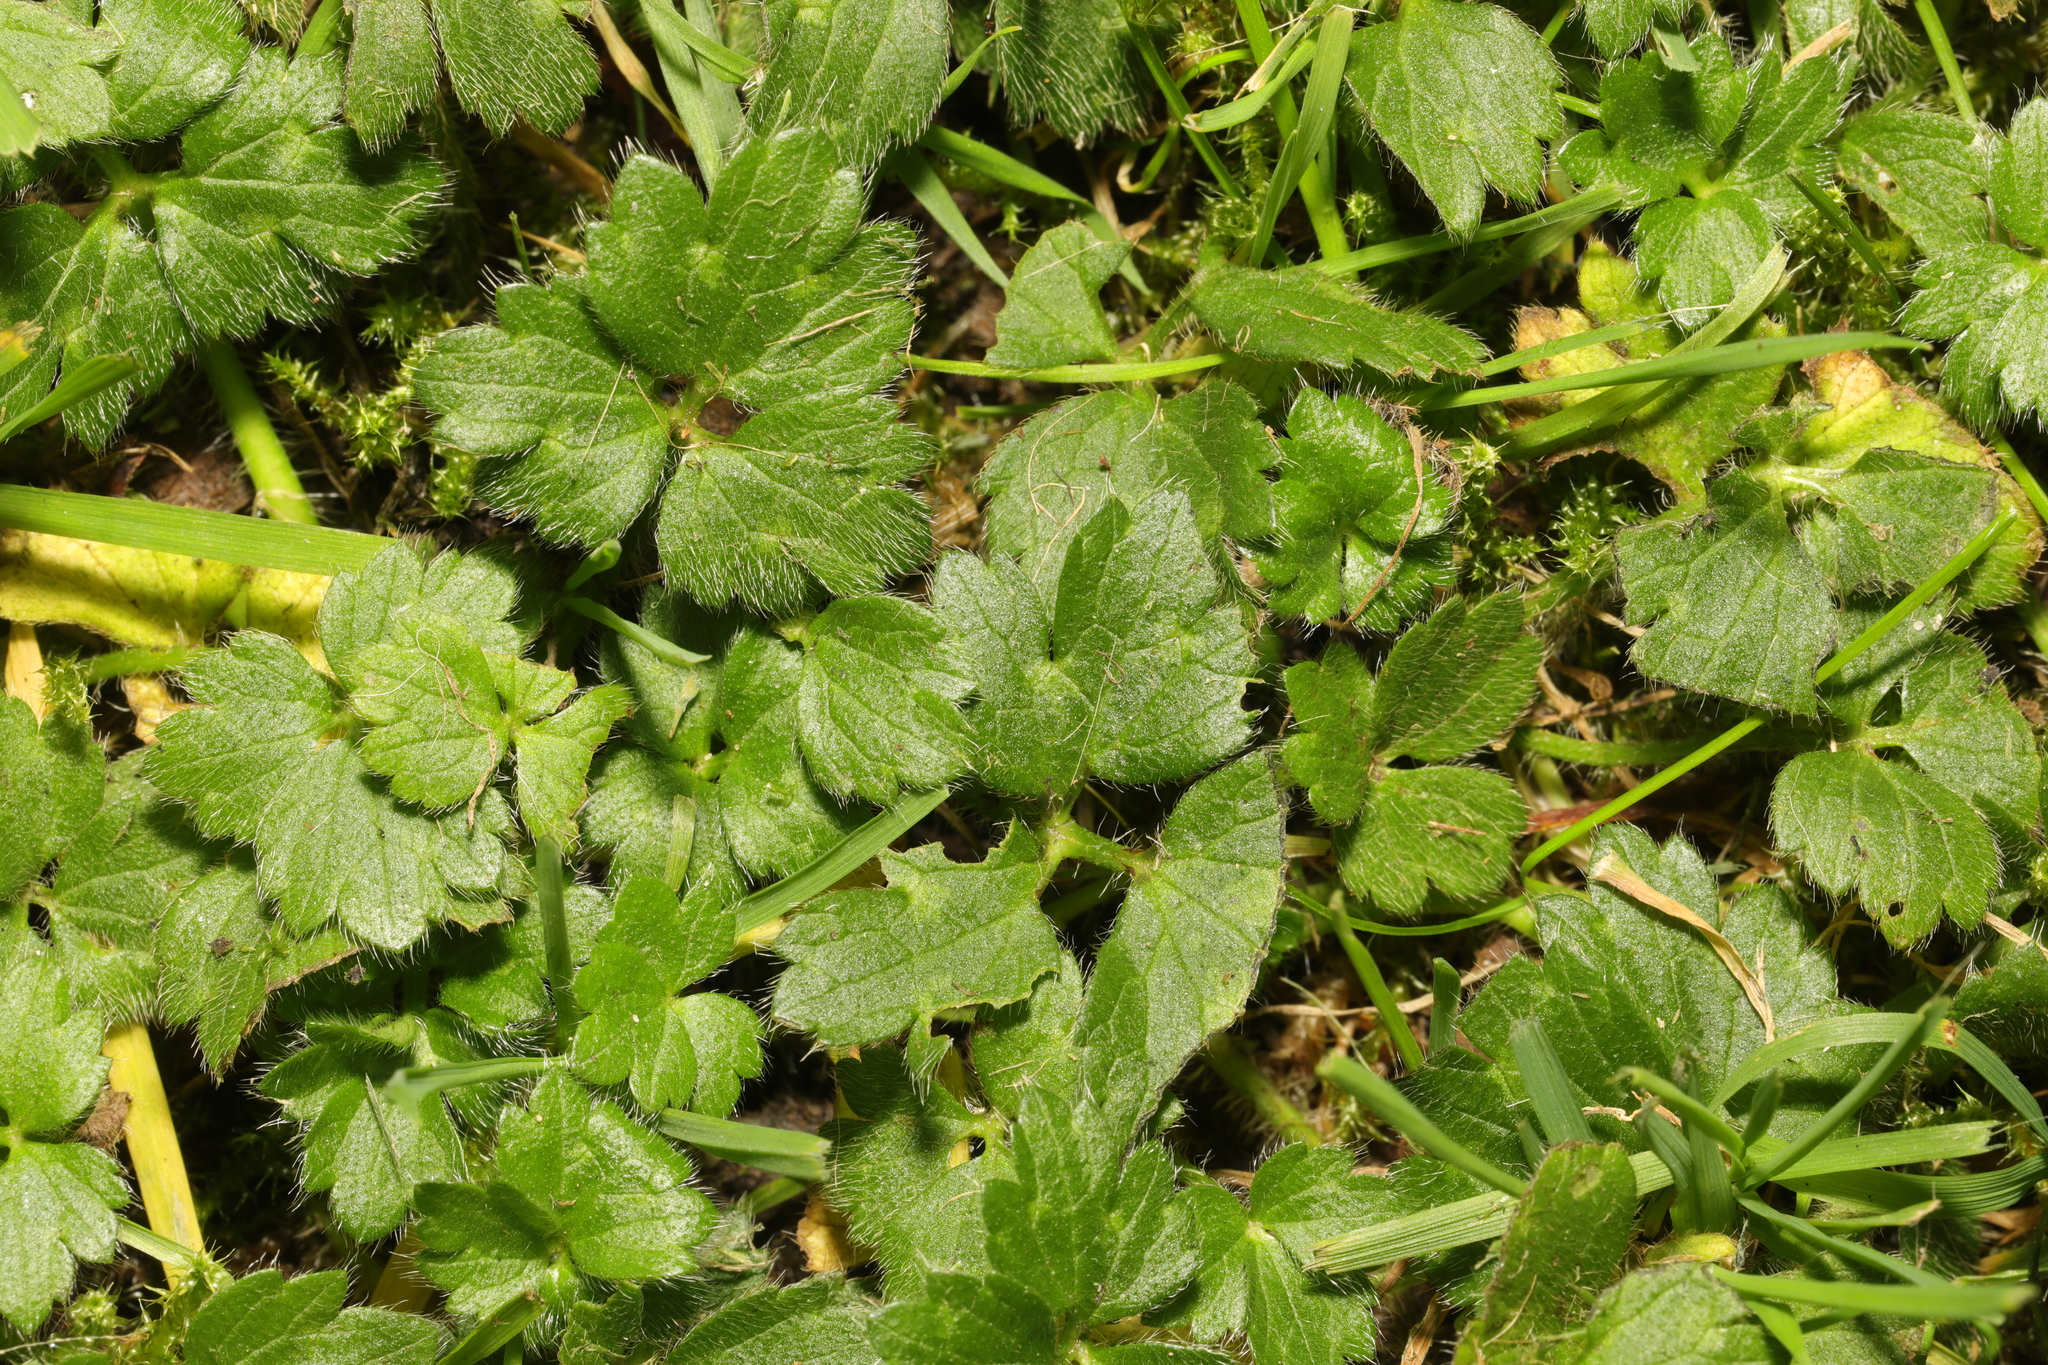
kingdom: Plantae
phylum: Tracheophyta
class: Magnoliopsida
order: Ranunculales
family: Ranunculaceae
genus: Ranunculus
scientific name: Ranunculus repens
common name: Creeping buttercup
